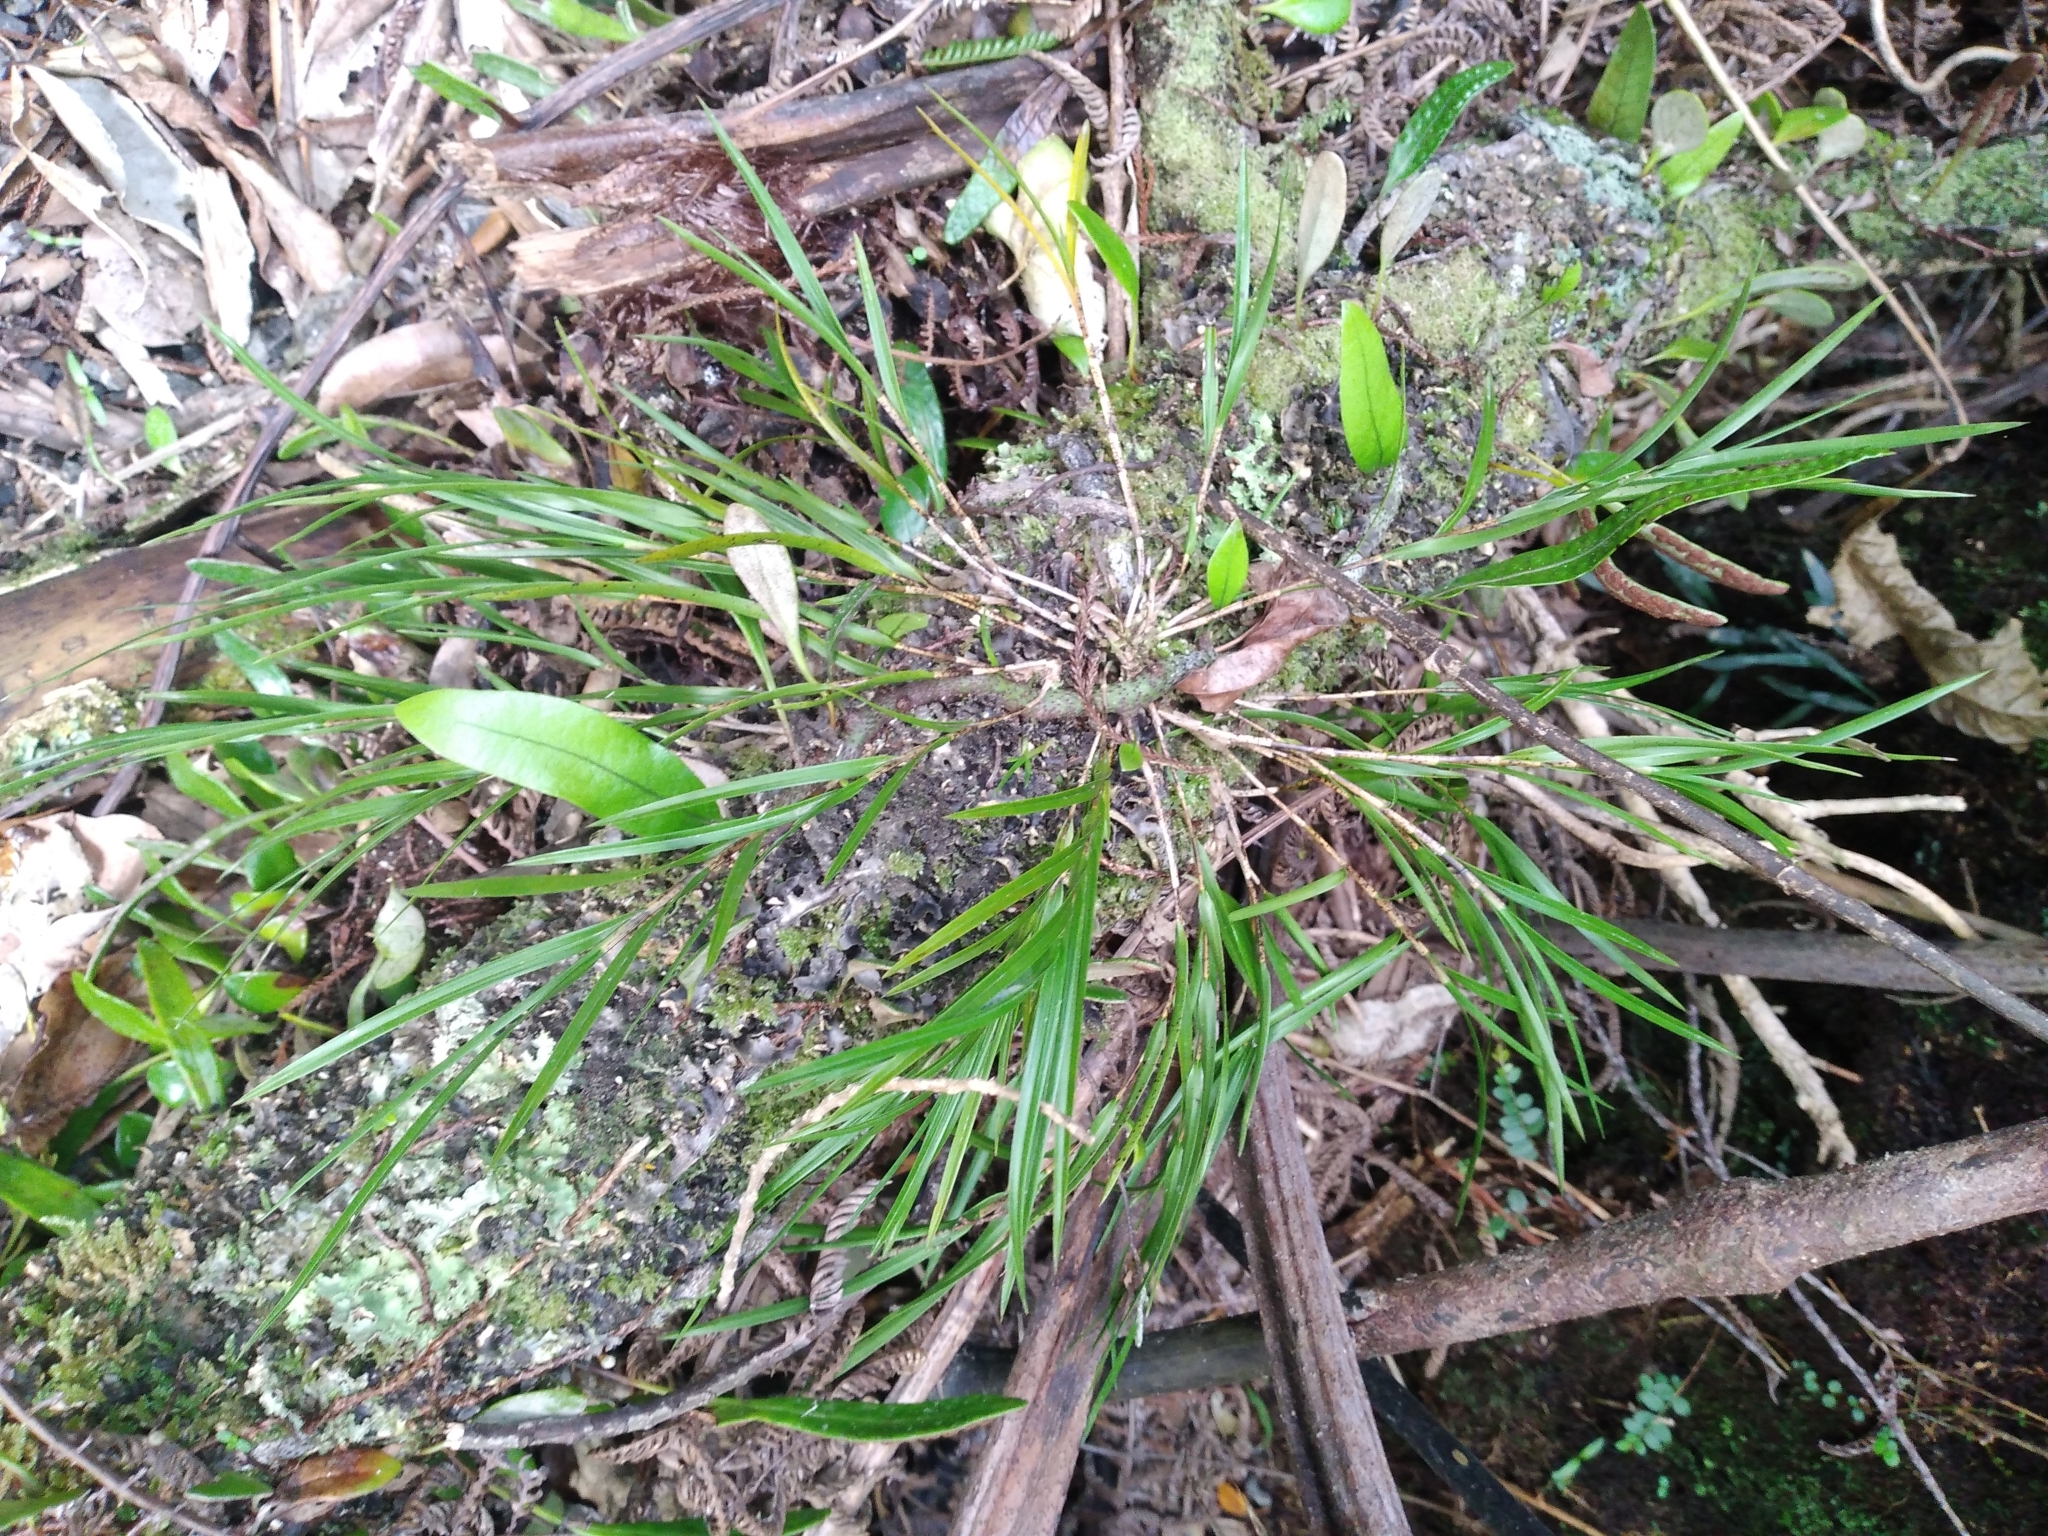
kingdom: Plantae
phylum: Tracheophyta
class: Liliopsida
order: Asparagales
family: Orchidaceae
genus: Earina
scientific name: Earina mucronata
